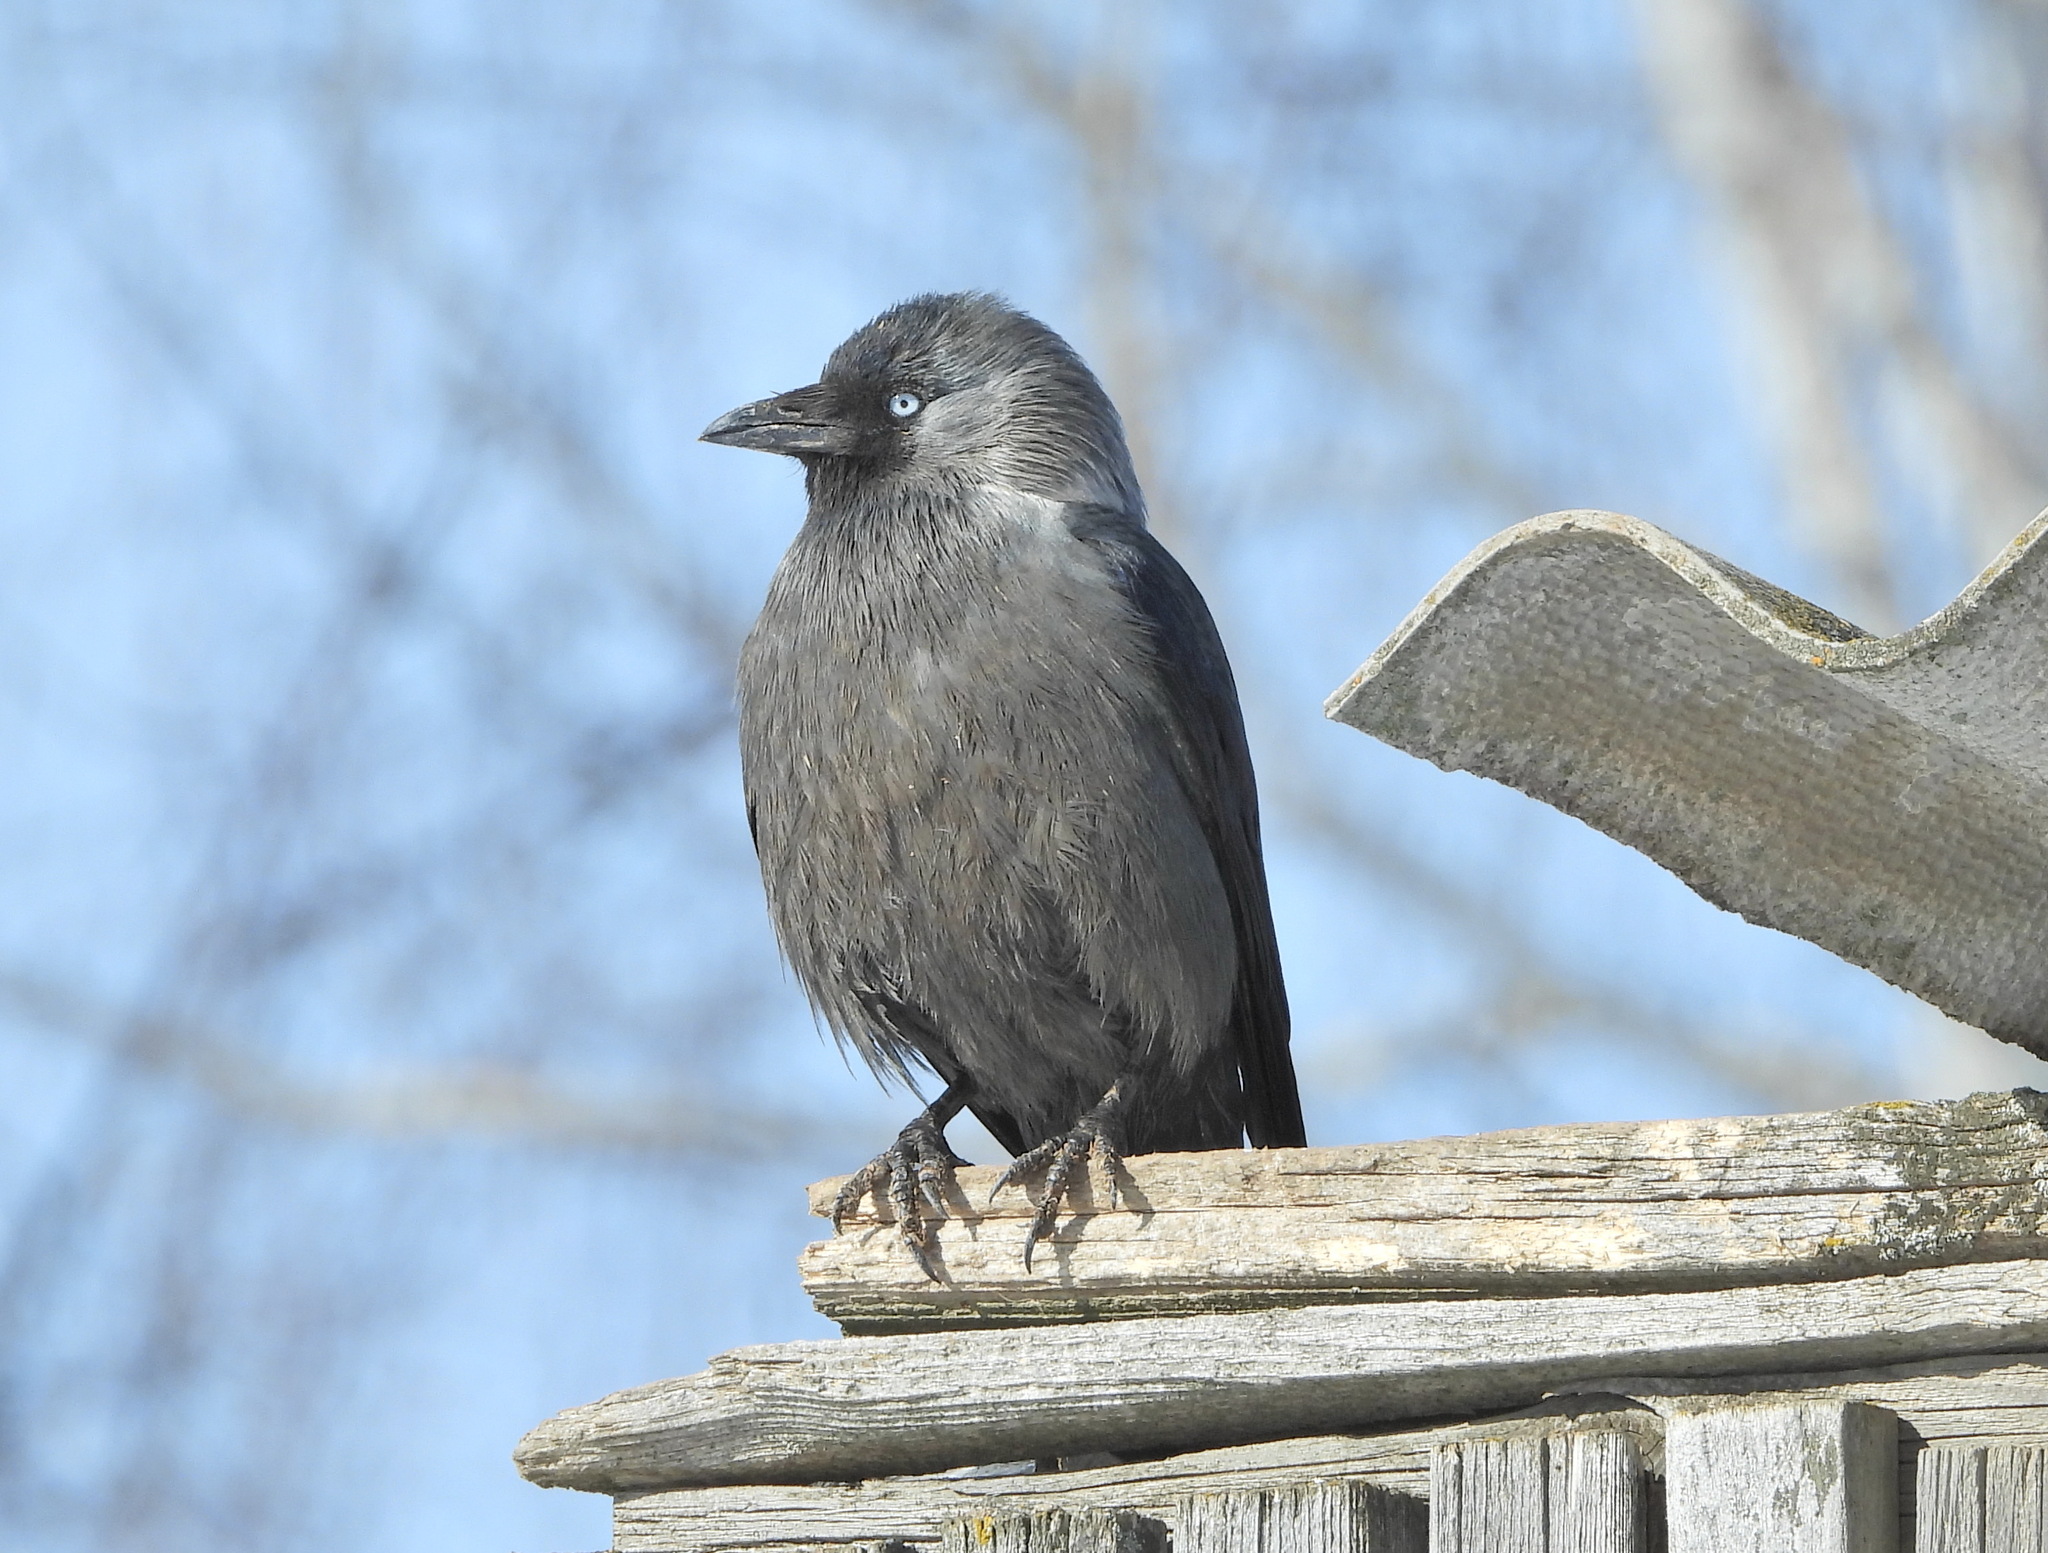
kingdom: Animalia
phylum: Chordata
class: Aves
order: Passeriformes
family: Corvidae
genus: Coloeus
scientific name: Coloeus monedula
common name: Western jackdaw
